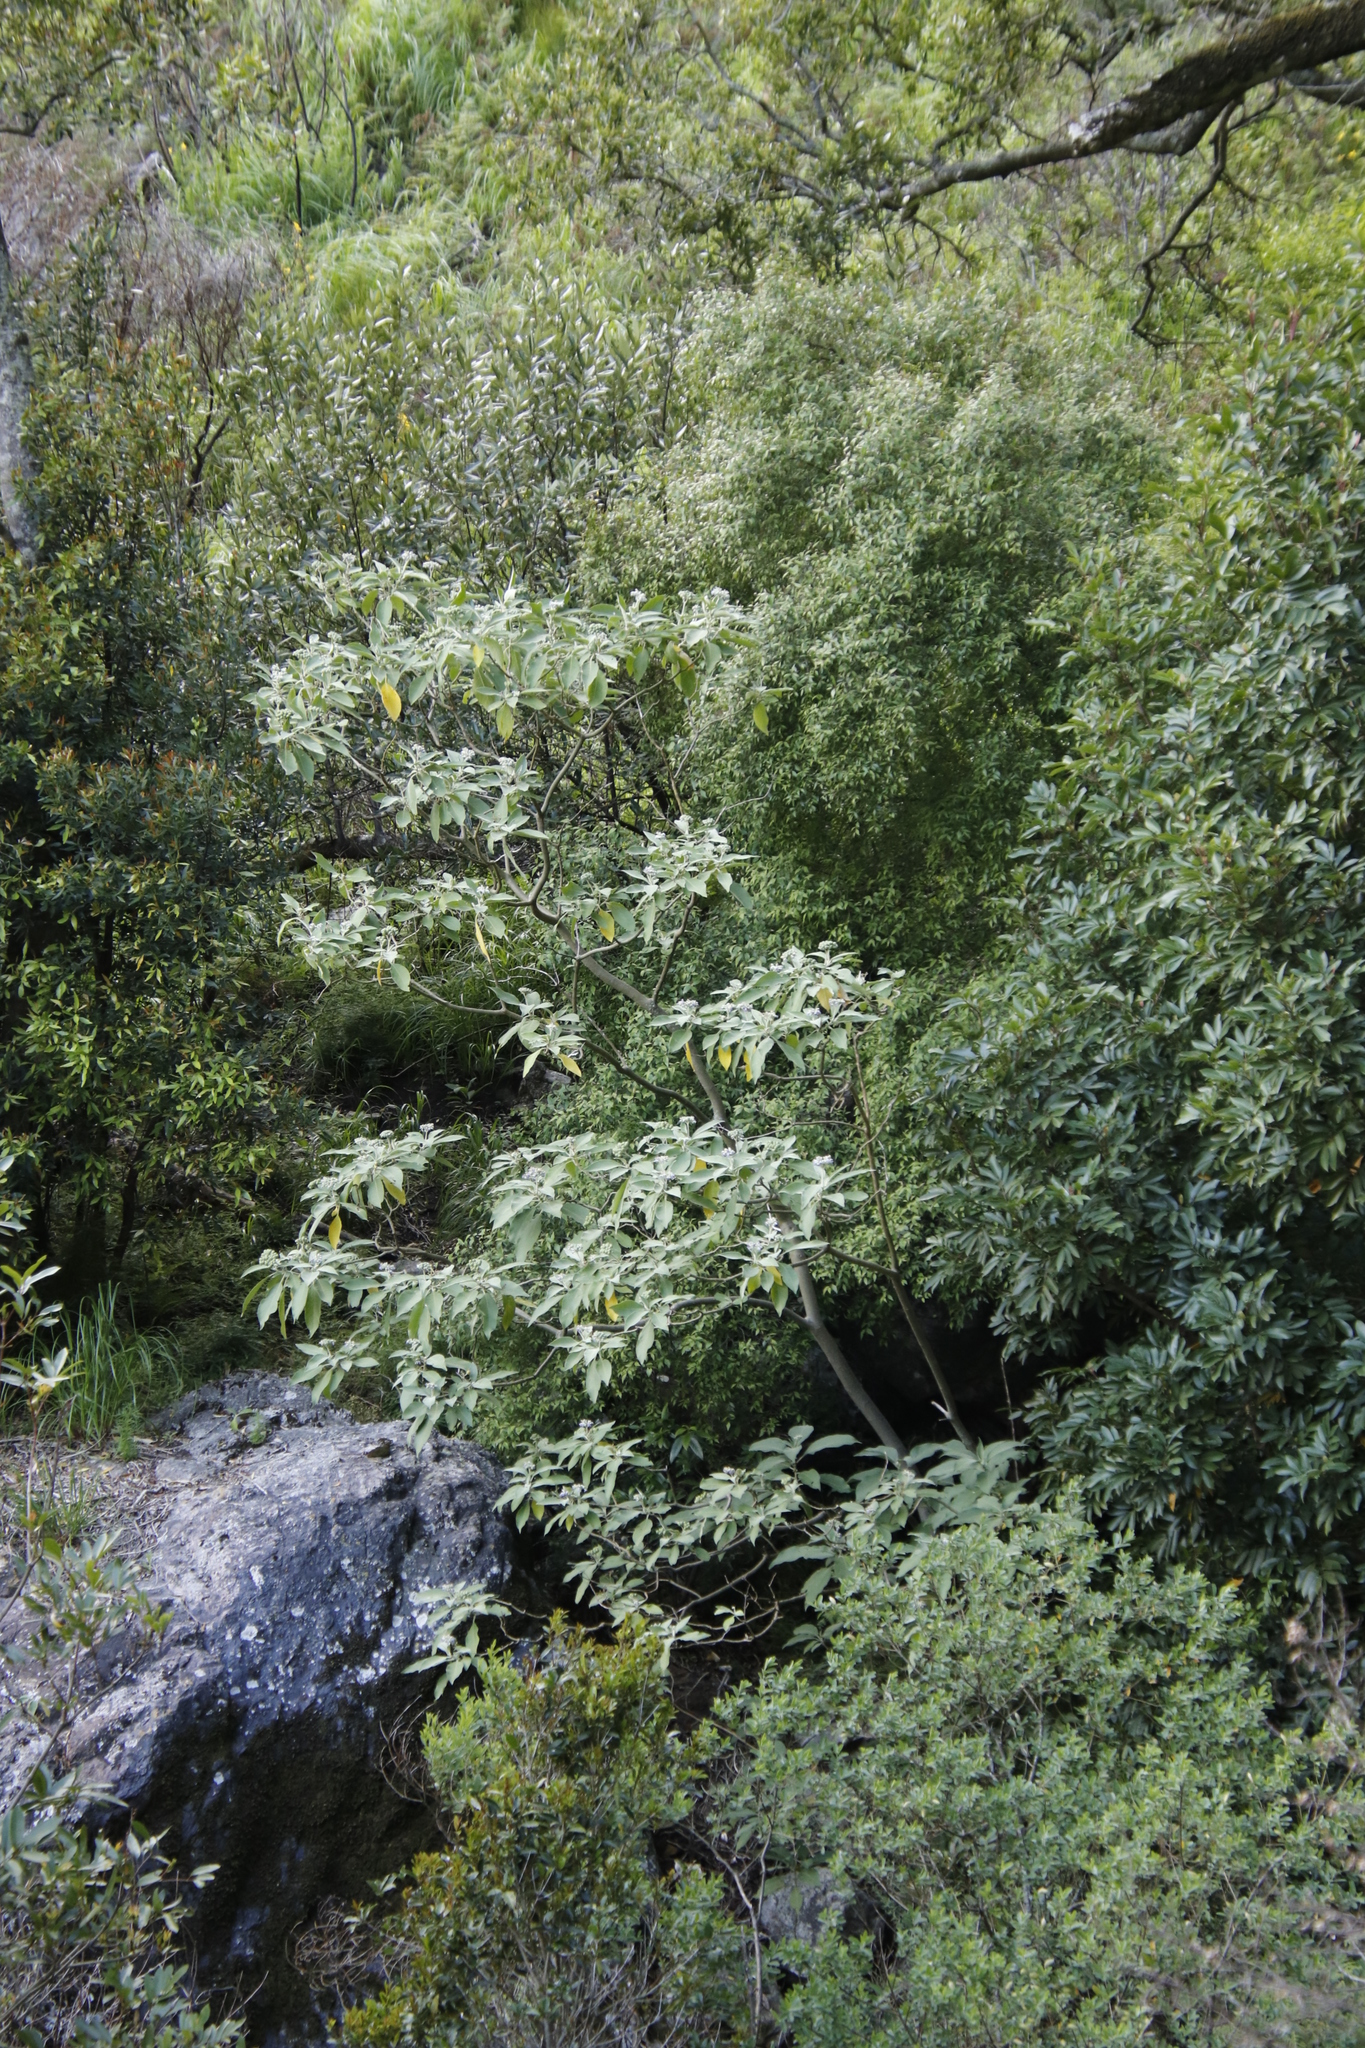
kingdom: Plantae
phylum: Tracheophyta
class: Magnoliopsida
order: Solanales
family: Solanaceae
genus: Solanum
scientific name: Solanum mauritianum
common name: Earleaf nightshade
